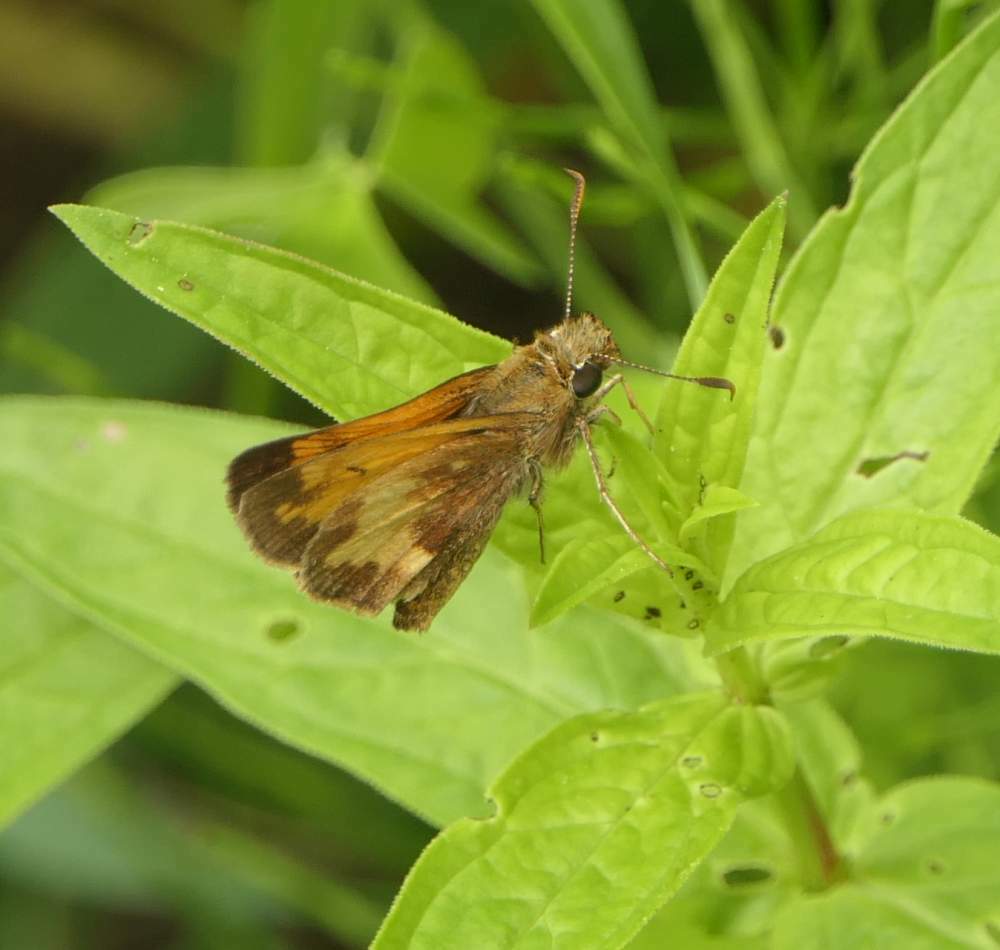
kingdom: Animalia
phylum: Arthropoda
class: Insecta
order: Lepidoptera
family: Hesperiidae
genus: Lon
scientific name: Lon hobomok
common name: Hobomok skipper
